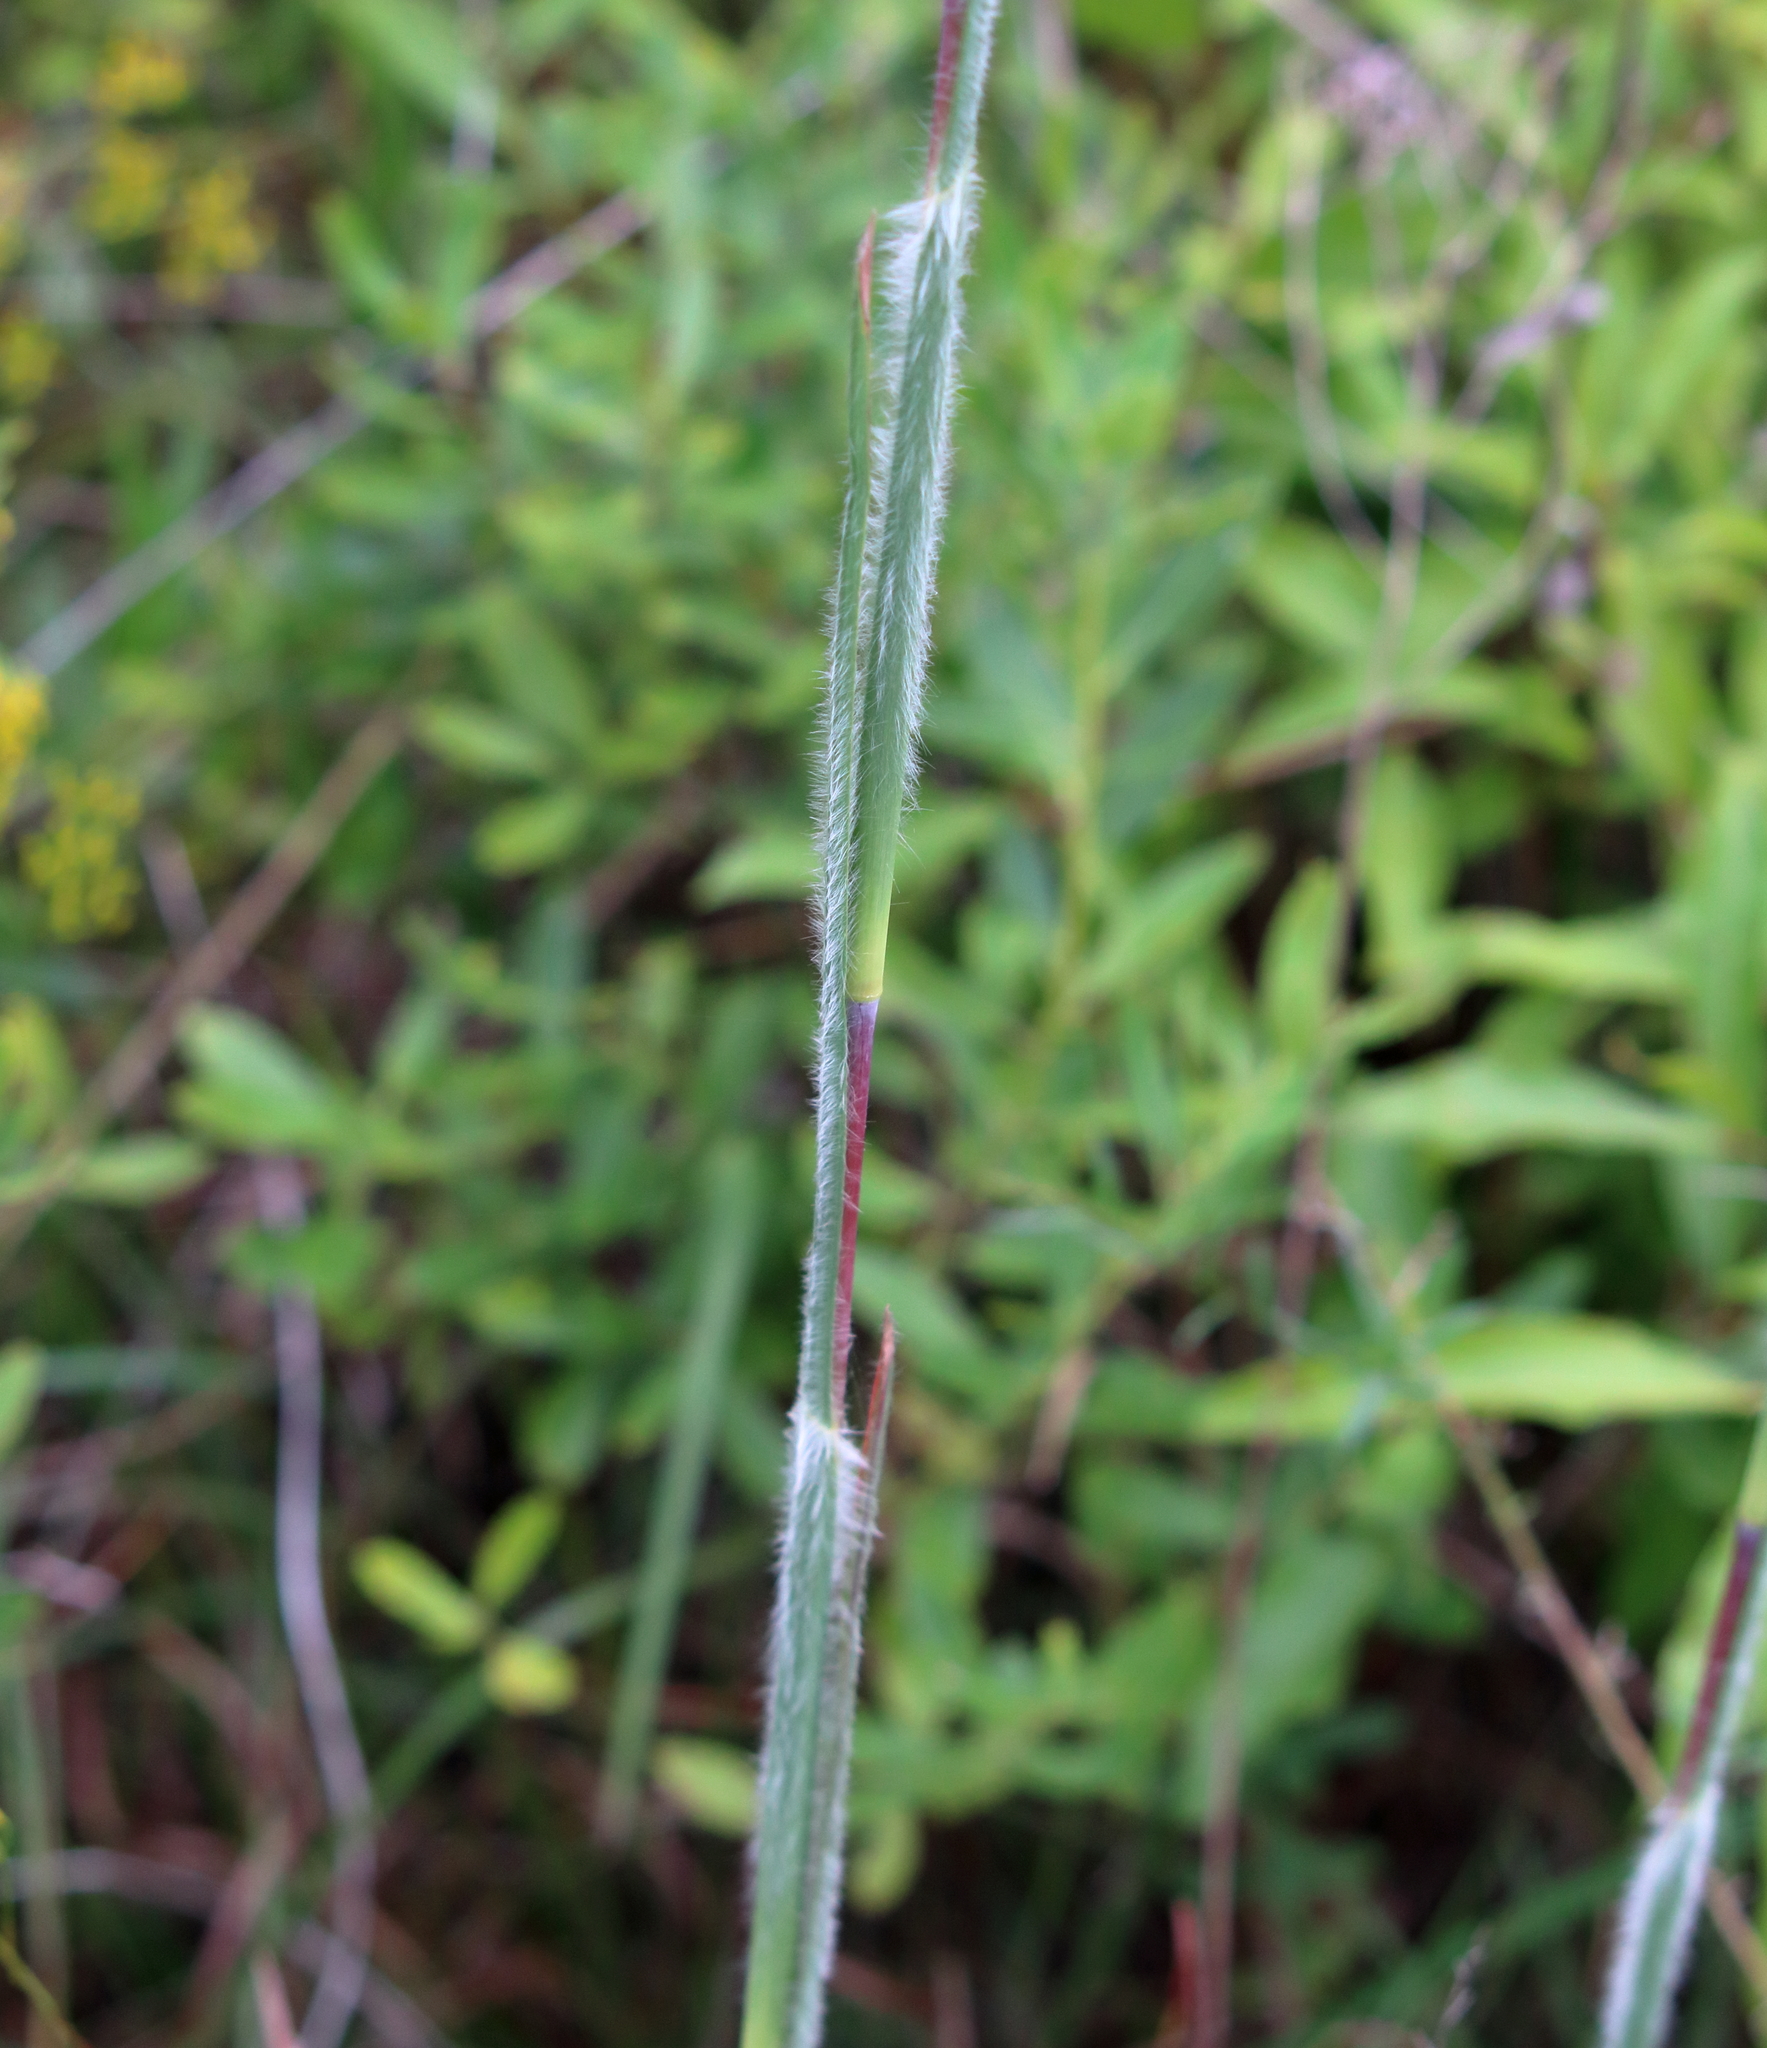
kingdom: Plantae
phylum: Tracheophyta
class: Liliopsida
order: Poales
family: Poaceae
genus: Schizachyrium
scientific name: Schizachyrium scoparium
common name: Little bluestem
